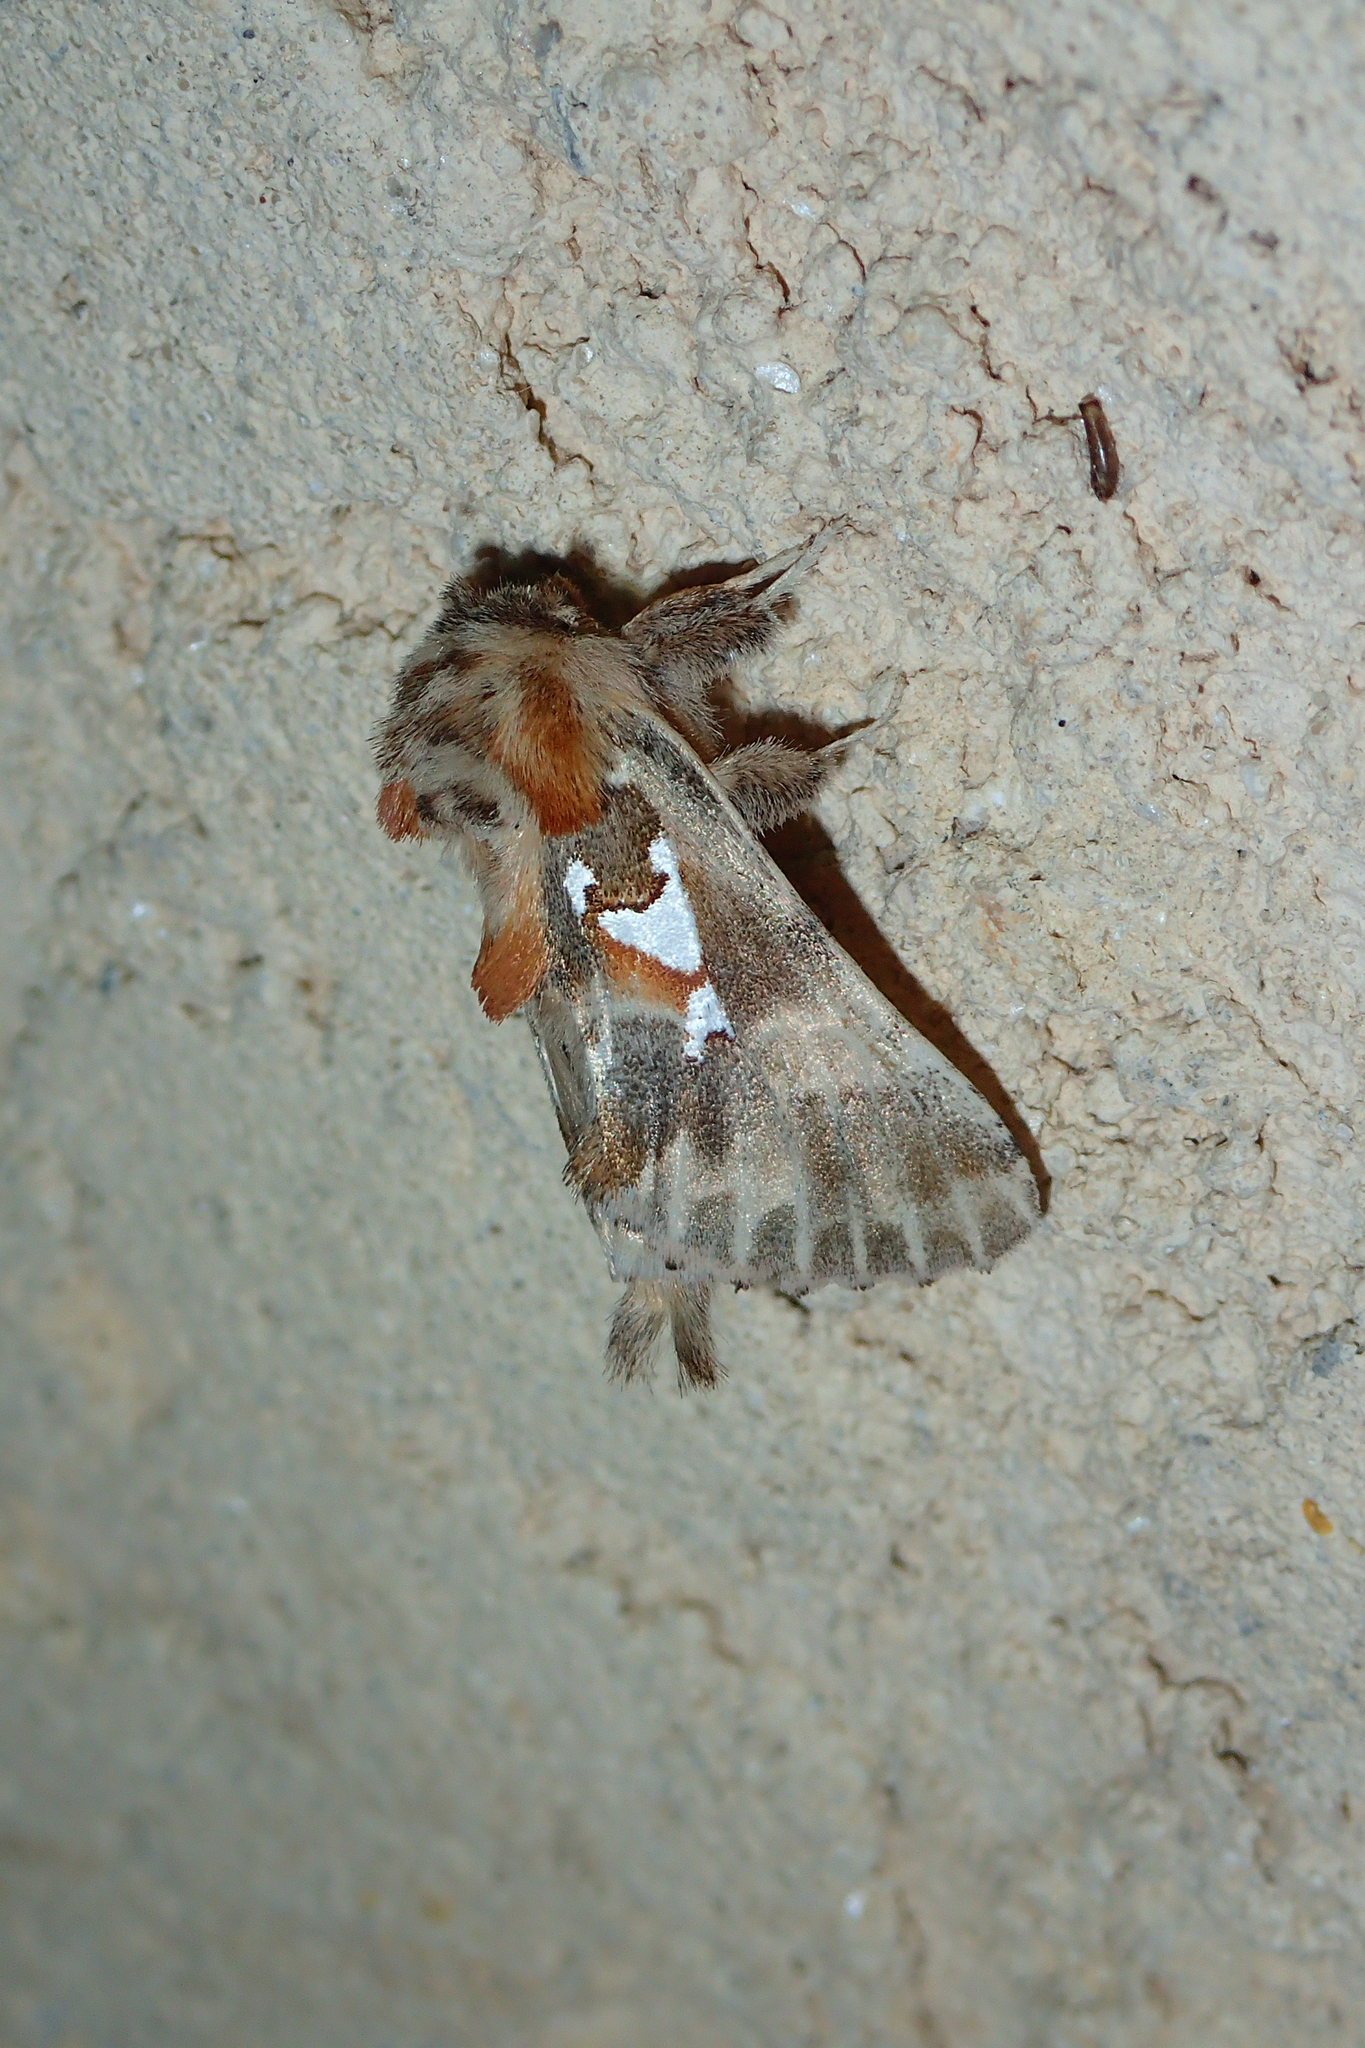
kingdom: Animalia
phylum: Arthropoda
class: Insecta
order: Lepidoptera
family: Notodontidae
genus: Spatalia
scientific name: Spatalia argentina
